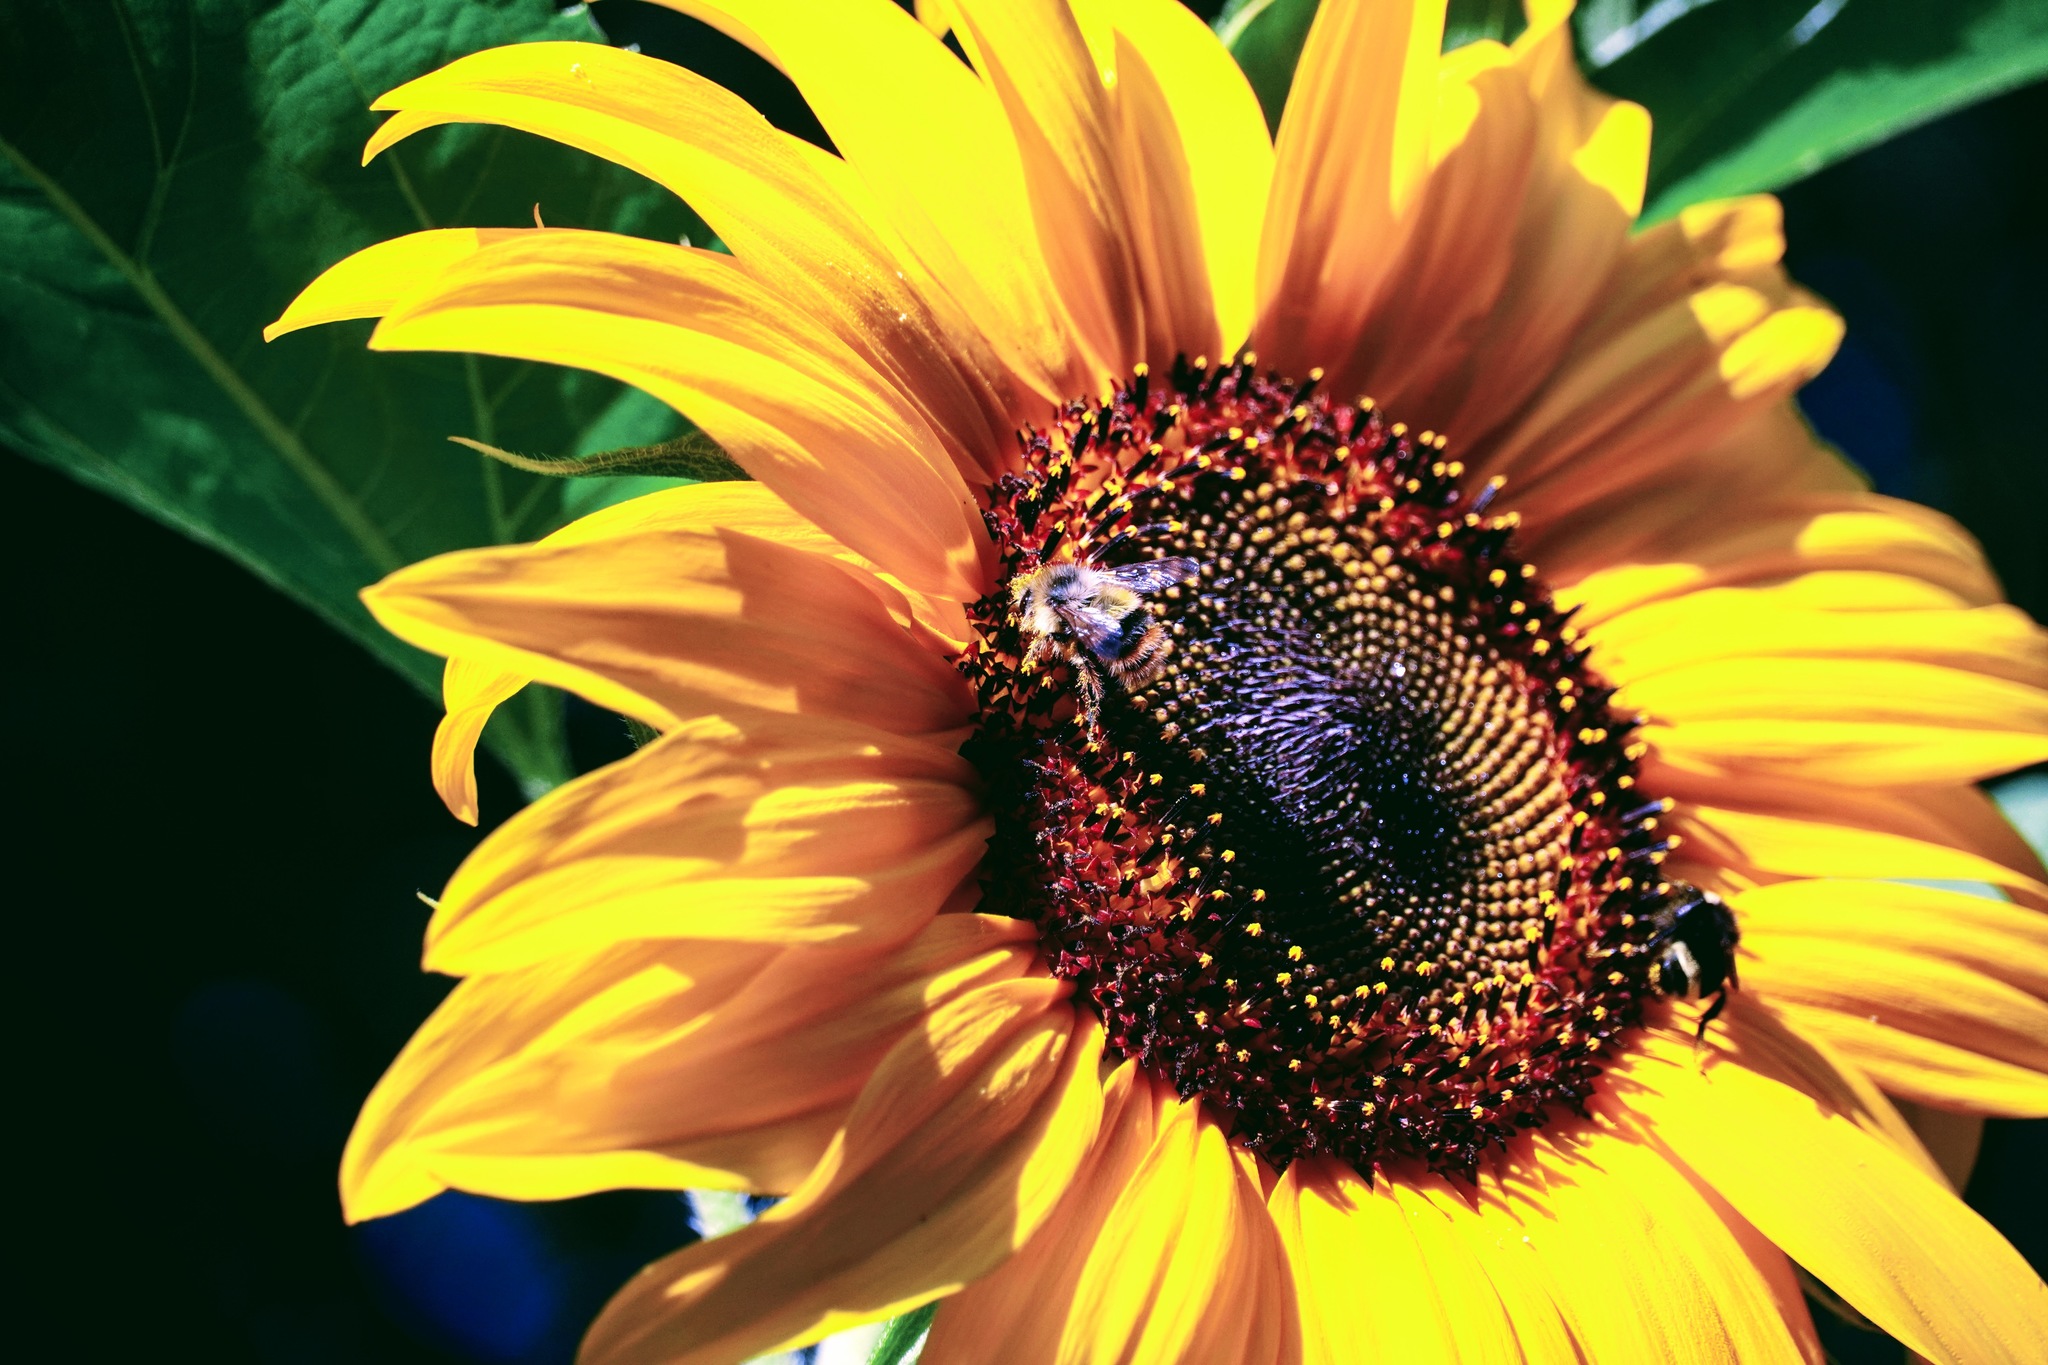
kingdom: Animalia
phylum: Arthropoda
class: Insecta
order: Hymenoptera
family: Apidae
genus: Bombus
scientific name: Bombus mixtus
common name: Fuzzy-horned bumble bee
